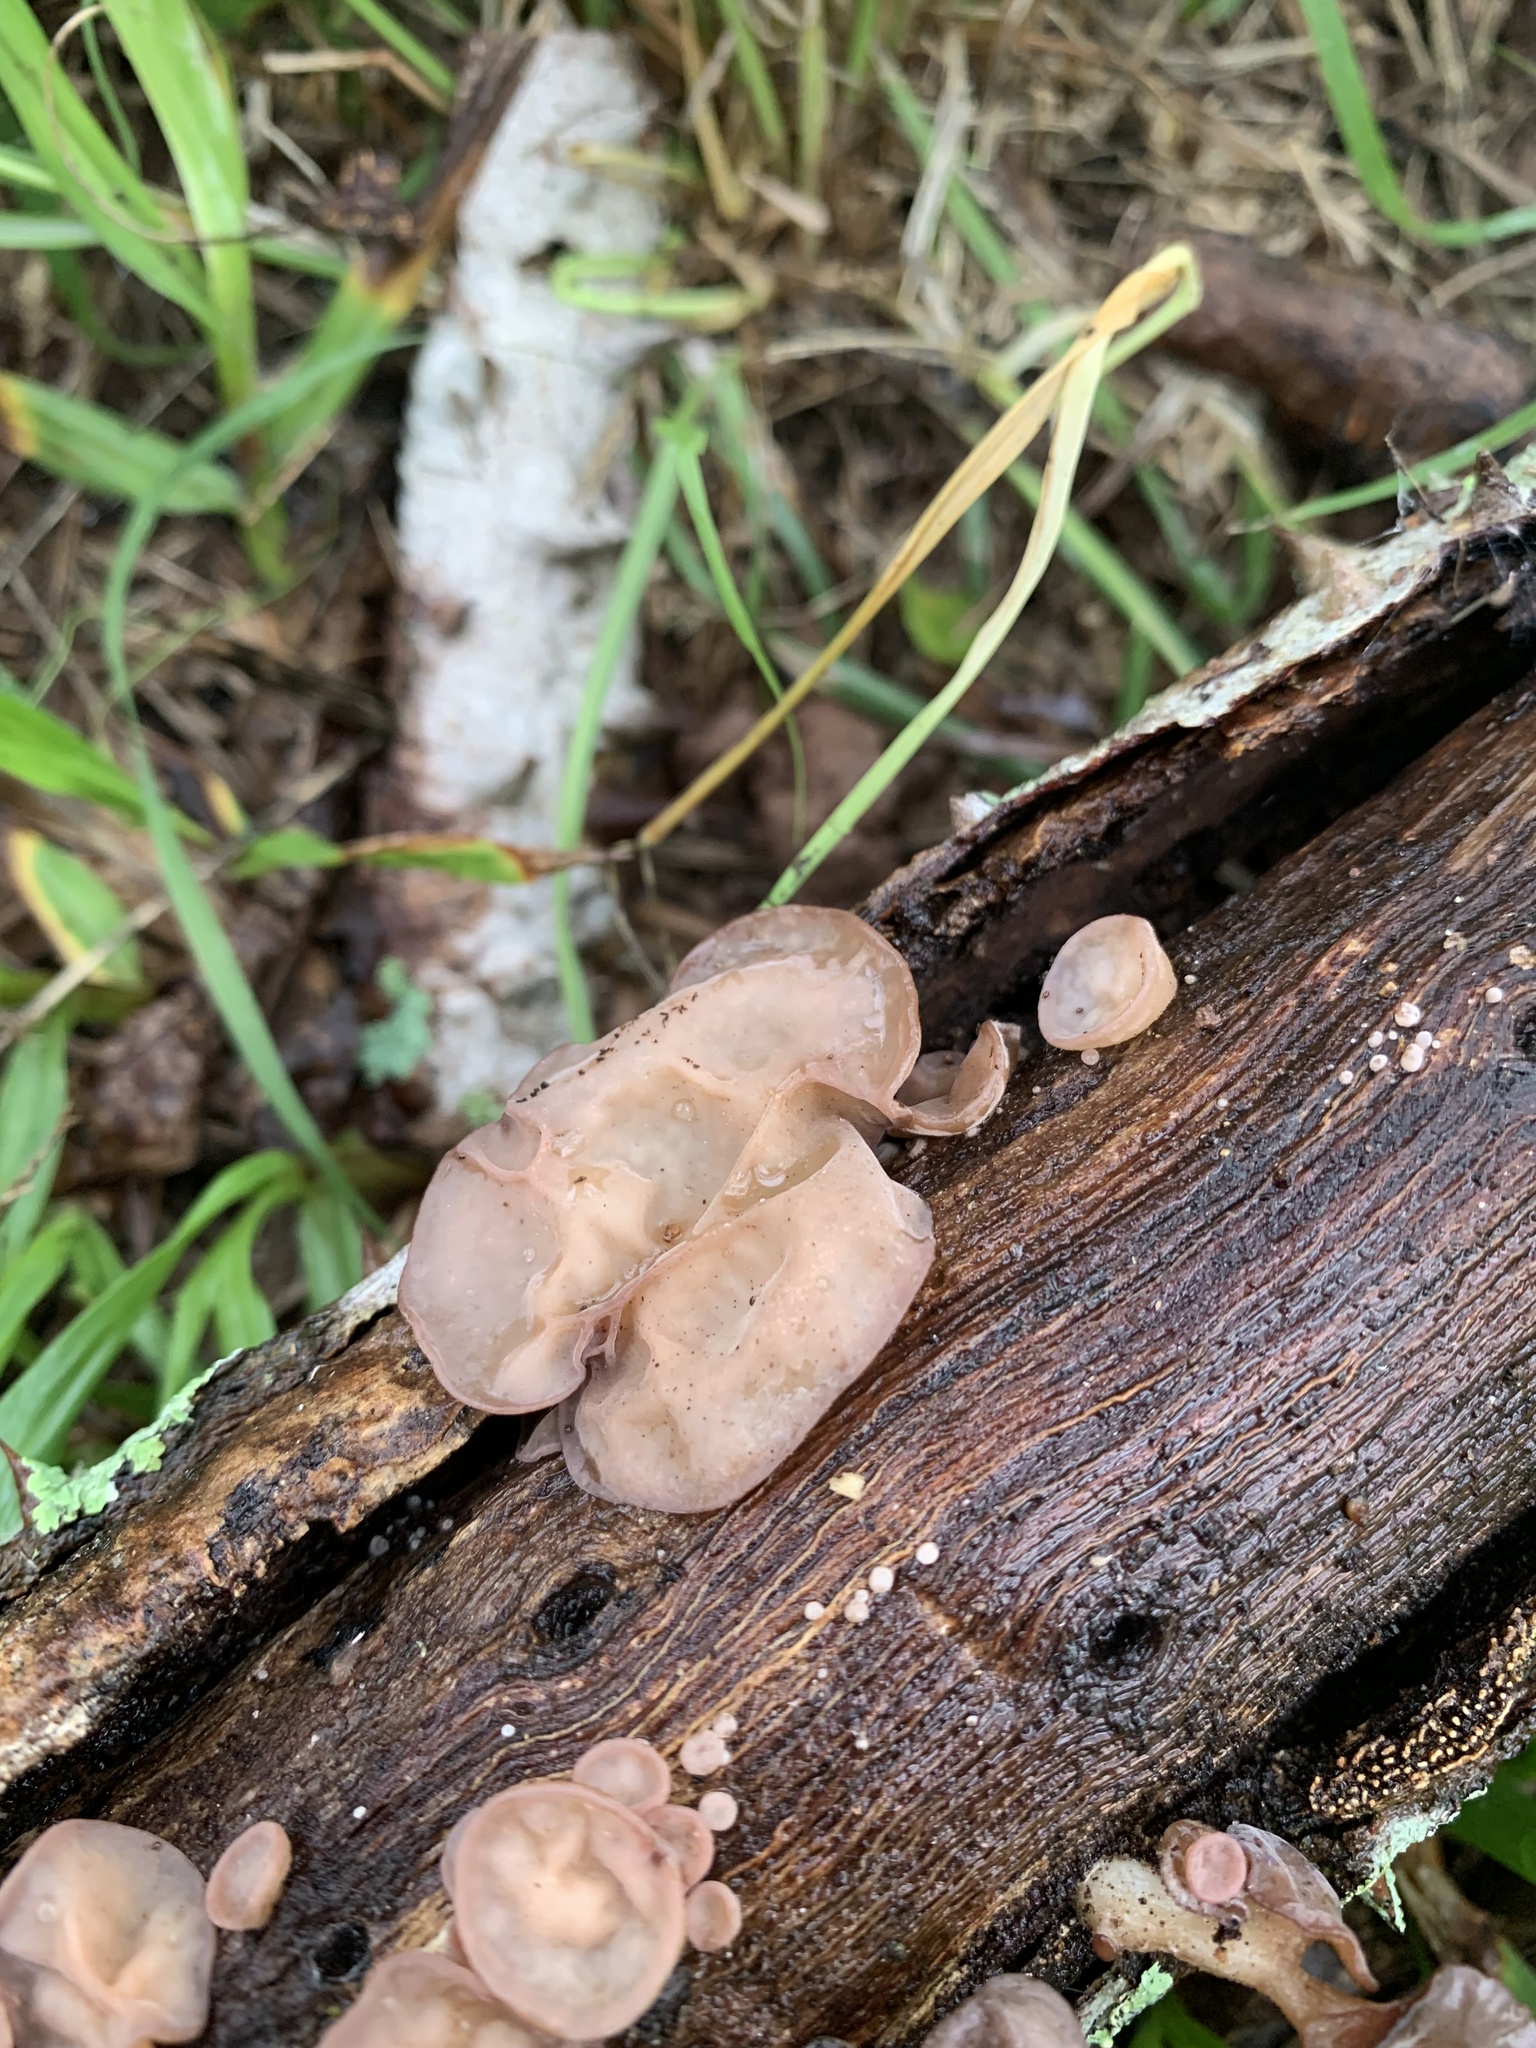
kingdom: Fungi
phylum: Basidiomycota
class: Agaricomycetes
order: Auriculariales
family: Auriculariaceae
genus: Auricularia
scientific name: Auricularia fuscosuccinea
